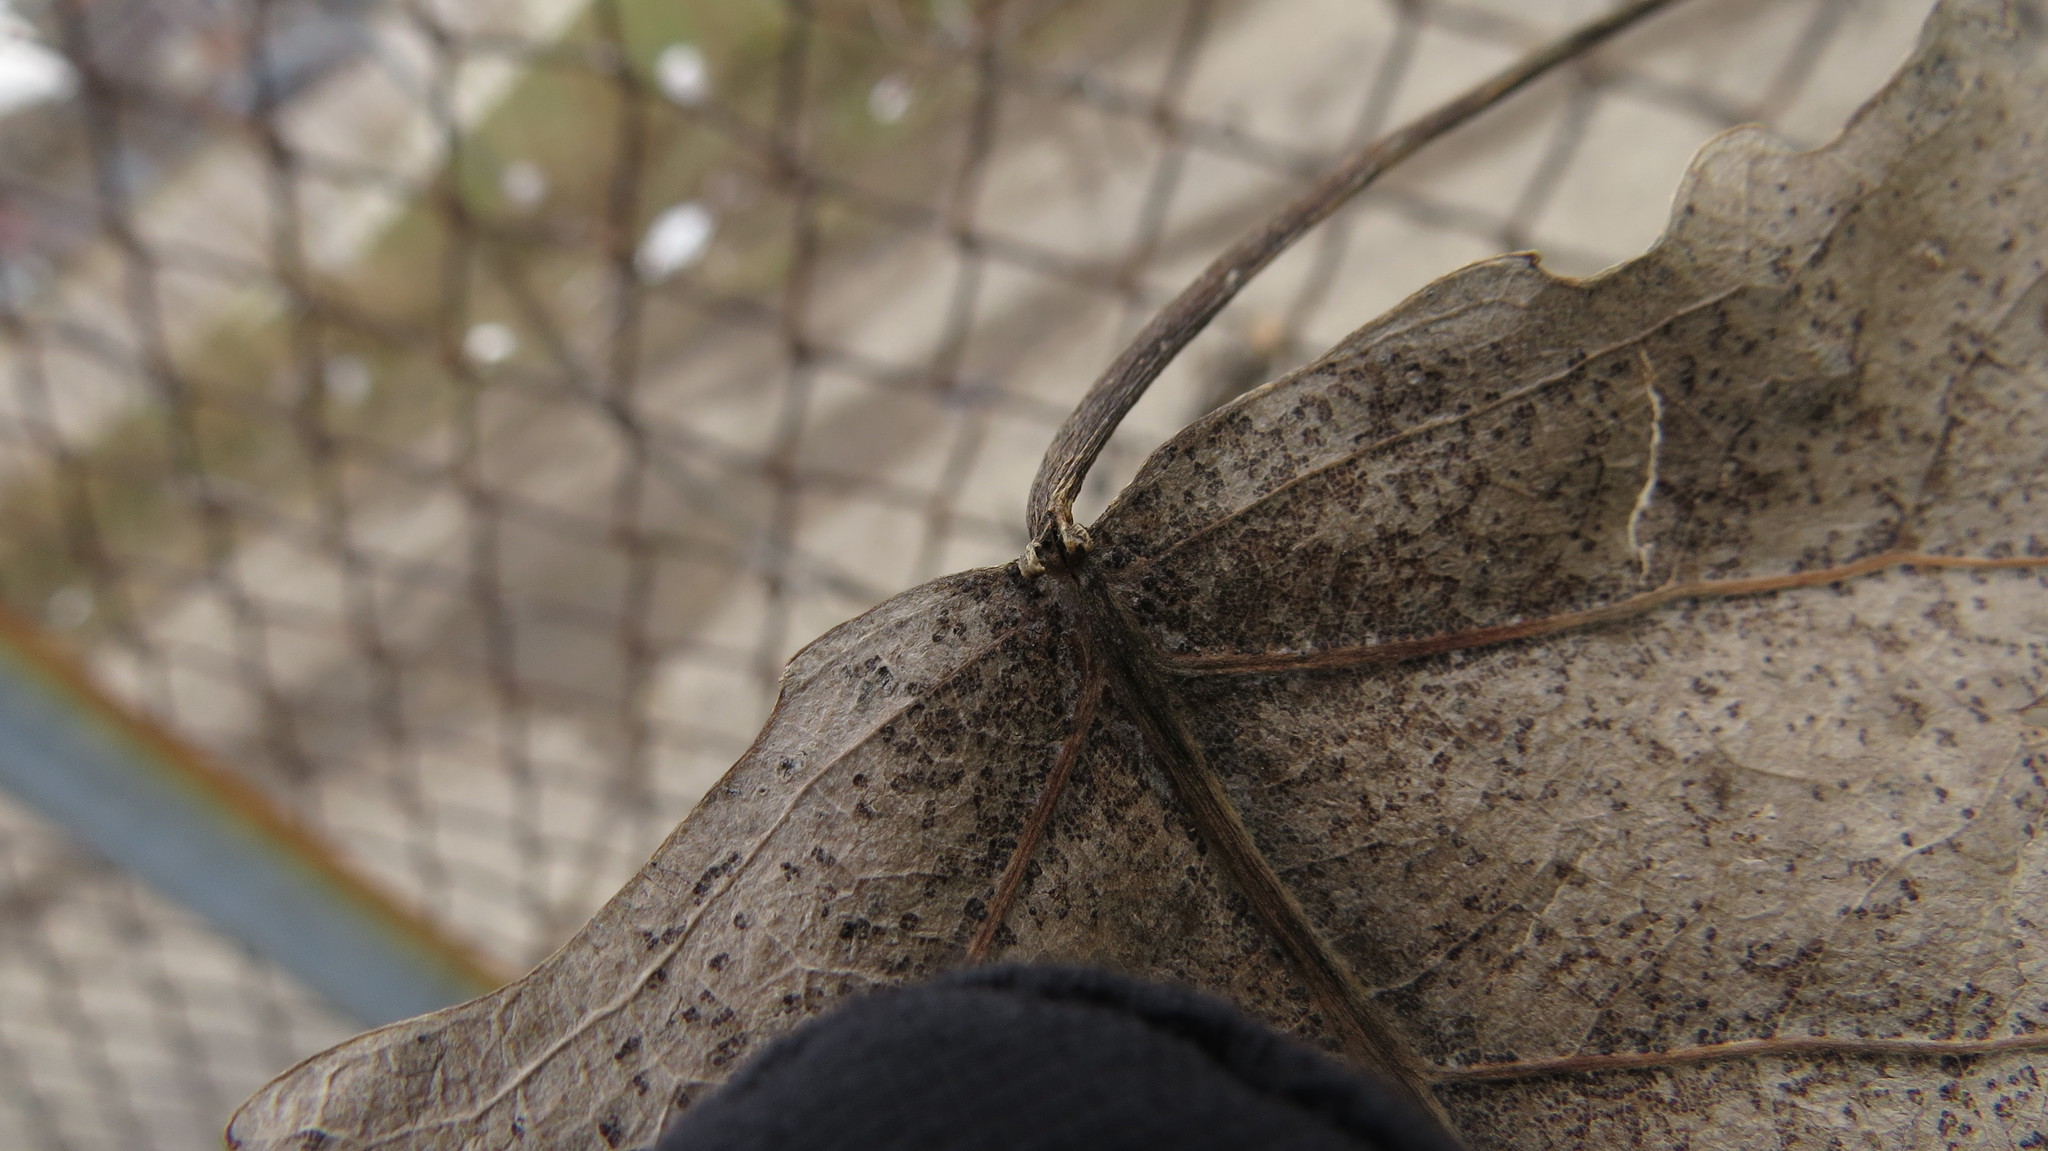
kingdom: Plantae
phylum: Tracheophyta
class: Magnoliopsida
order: Malpighiales
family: Salicaceae
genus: Populus
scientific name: Populus deltoides
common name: Eastern cottonwood
